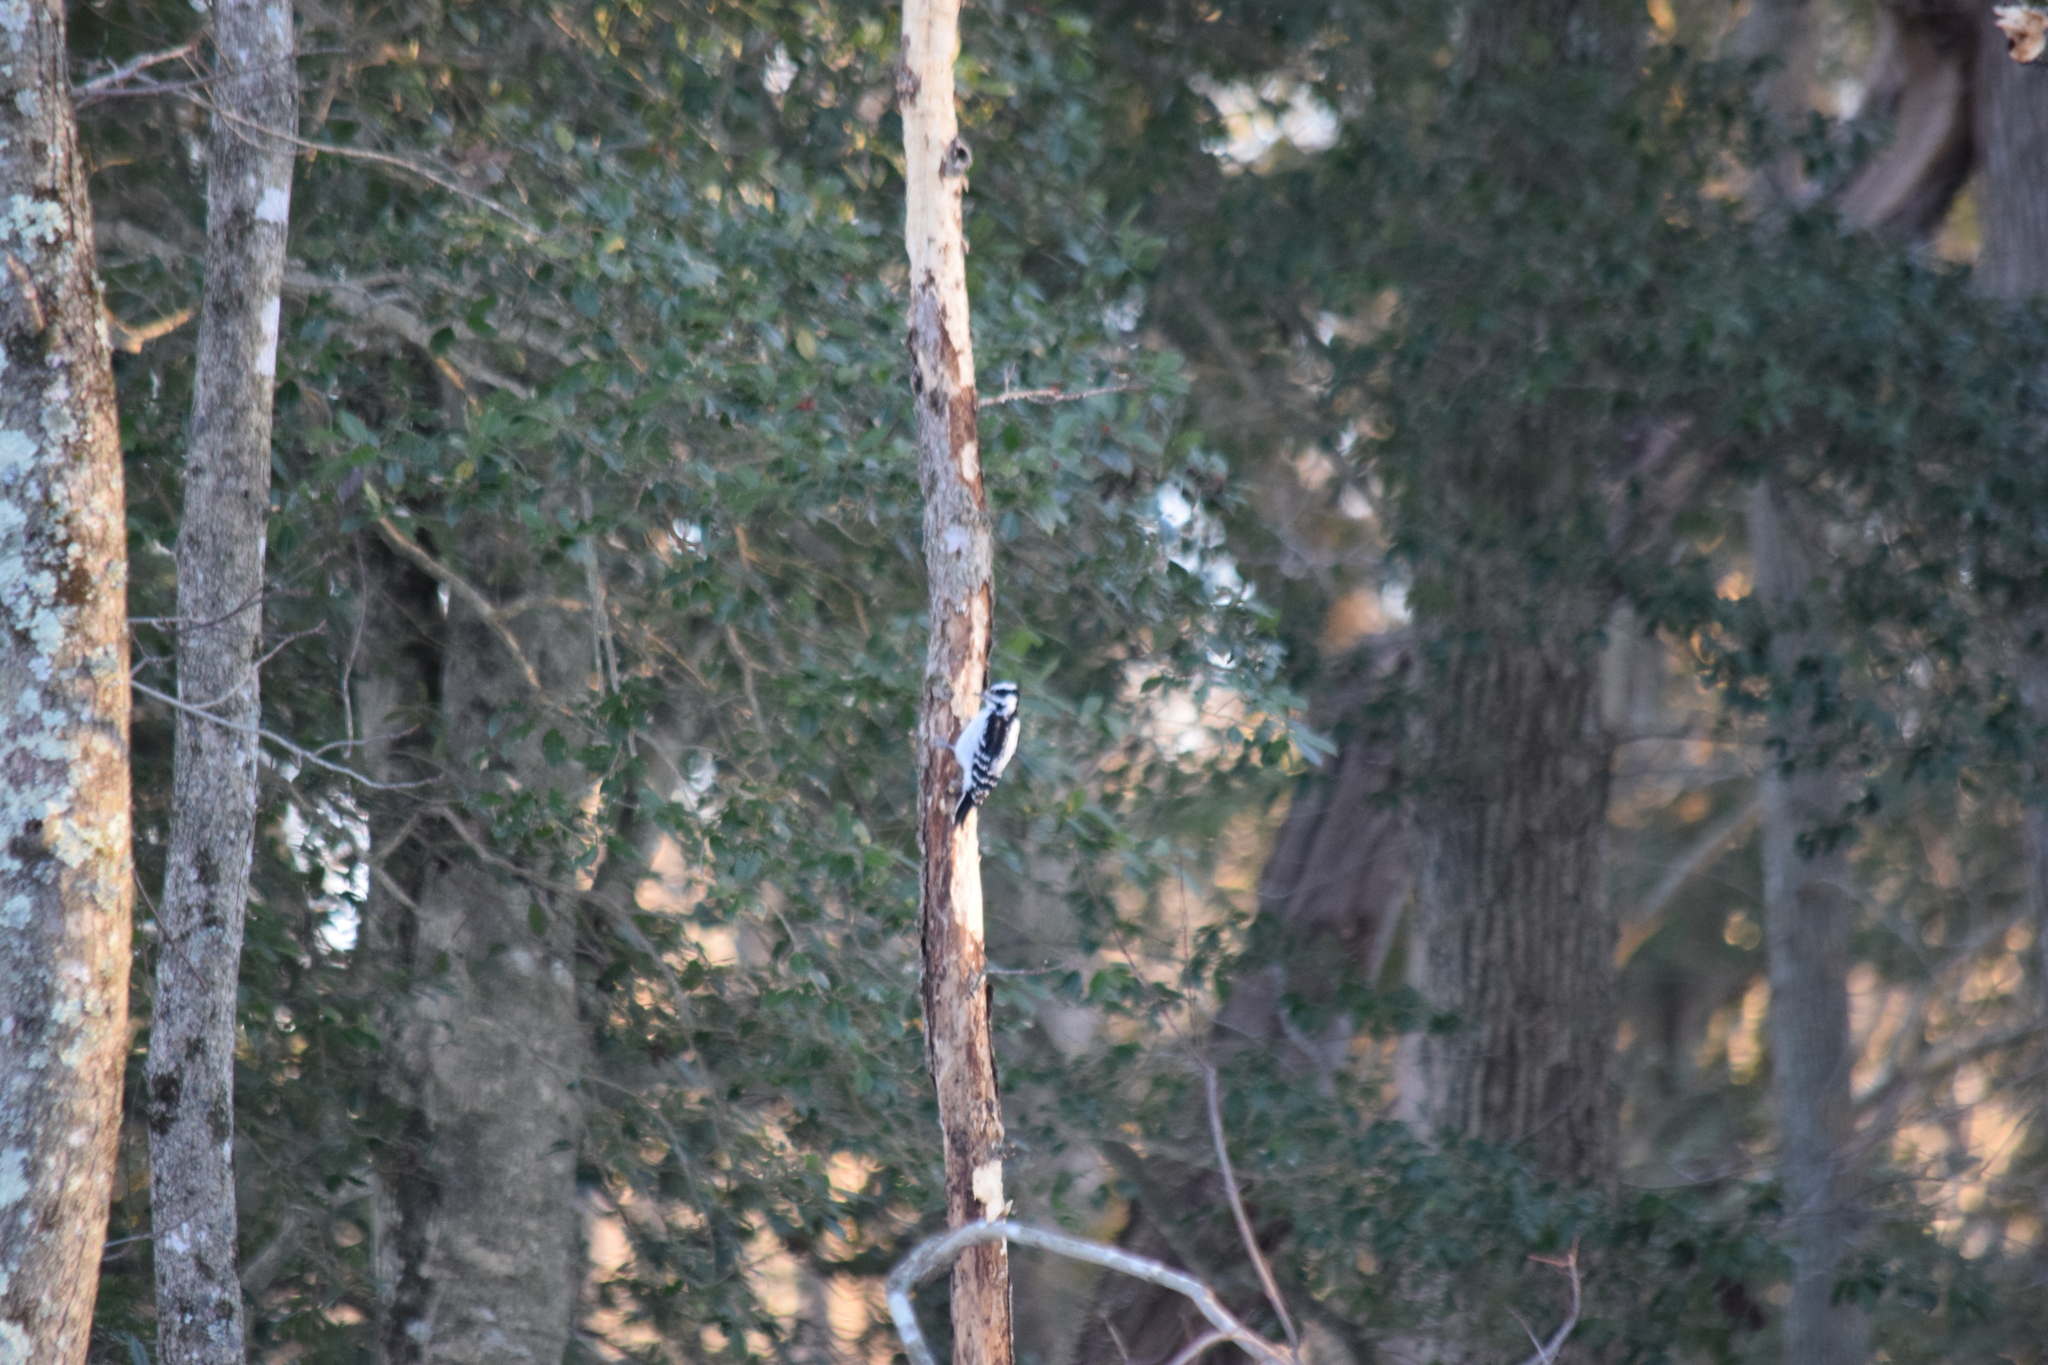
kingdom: Animalia
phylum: Chordata
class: Aves
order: Piciformes
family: Picidae
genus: Dryobates
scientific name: Dryobates pubescens
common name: Downy woodpecker
